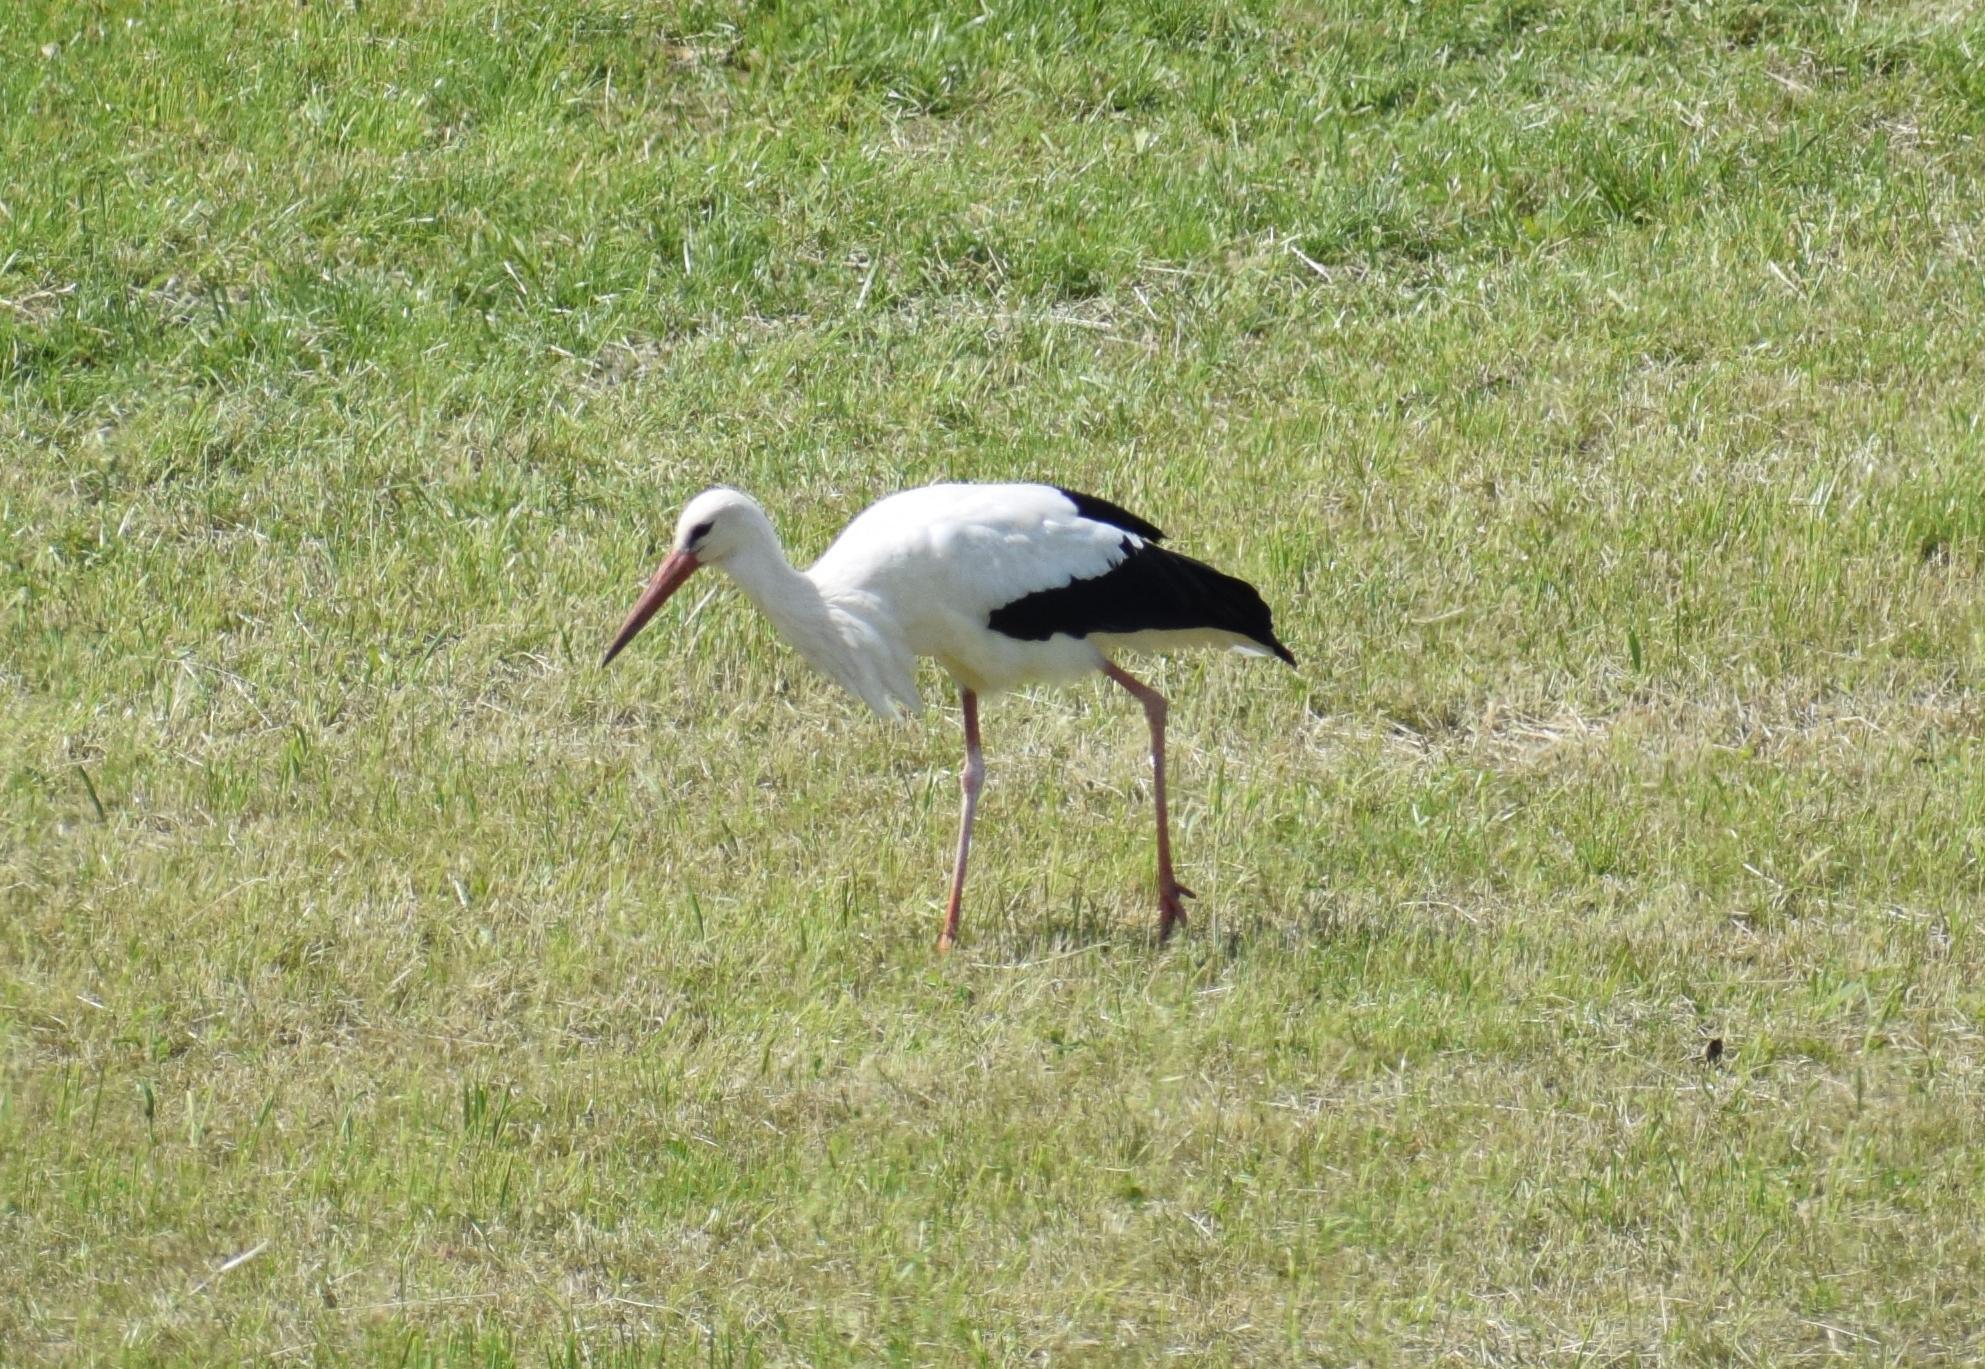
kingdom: Animalia
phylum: Chordata
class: Aves
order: Ciconiiformes
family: Ciconiidae
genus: Ciconia
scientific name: Ciconia ciconia
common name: White stork
